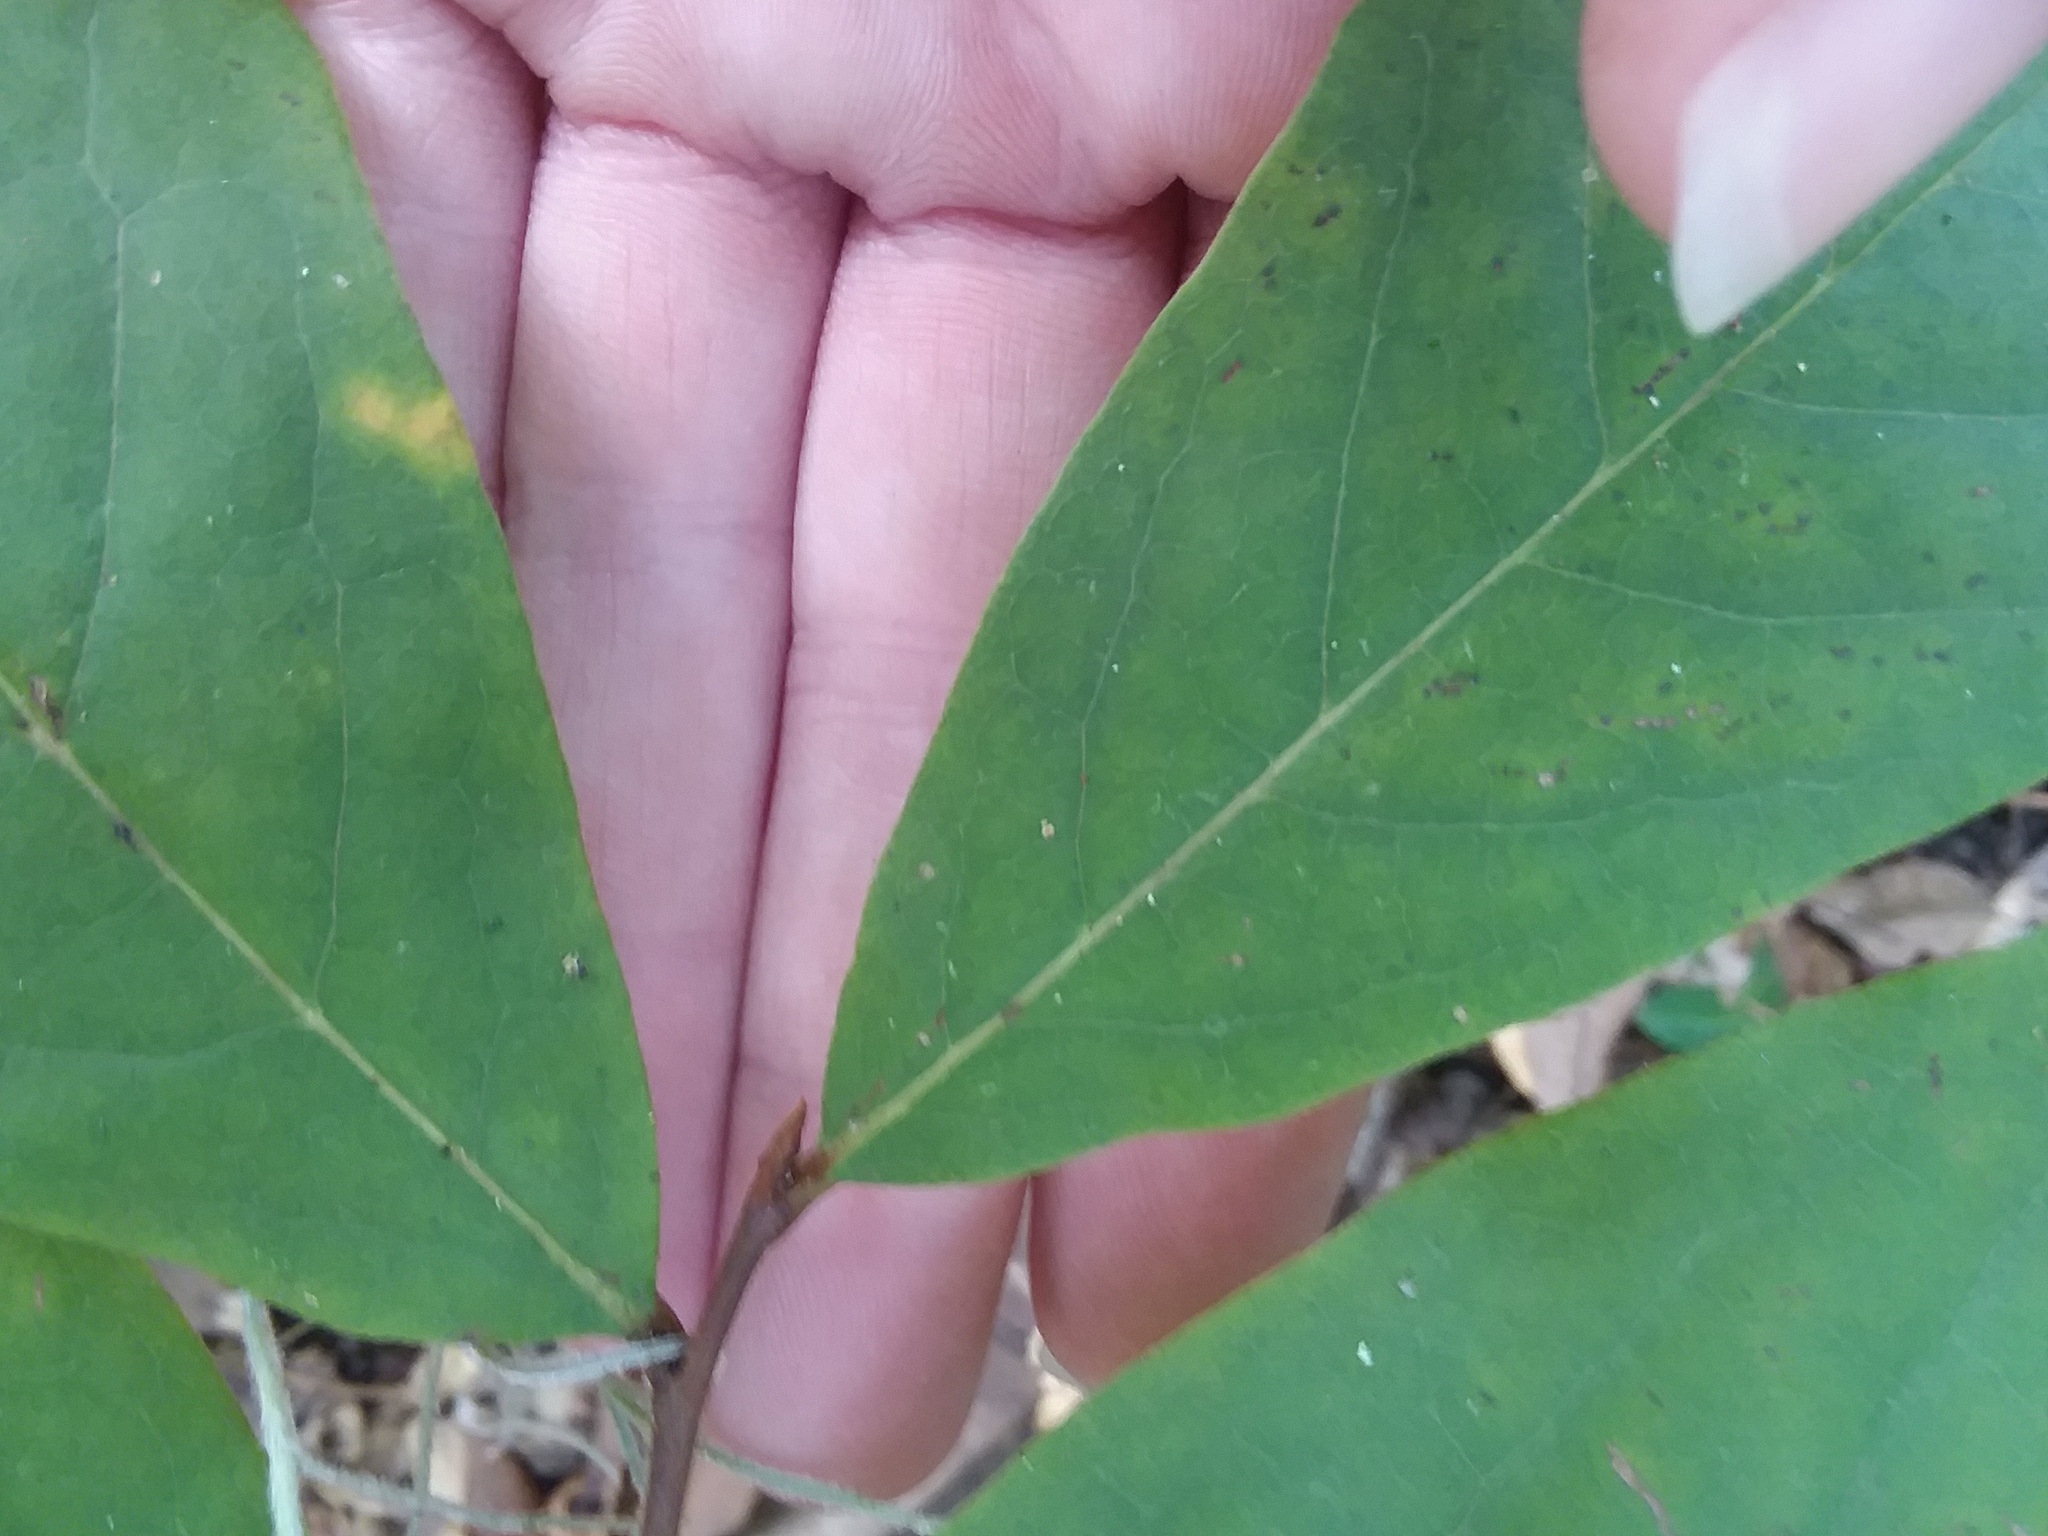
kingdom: Plantae
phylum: Tracheophyta
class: Magnoliopsida
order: Magnoliales
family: Annonaceae
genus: Asimina
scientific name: Asimina parviflora
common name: Dwarf pawpaw
